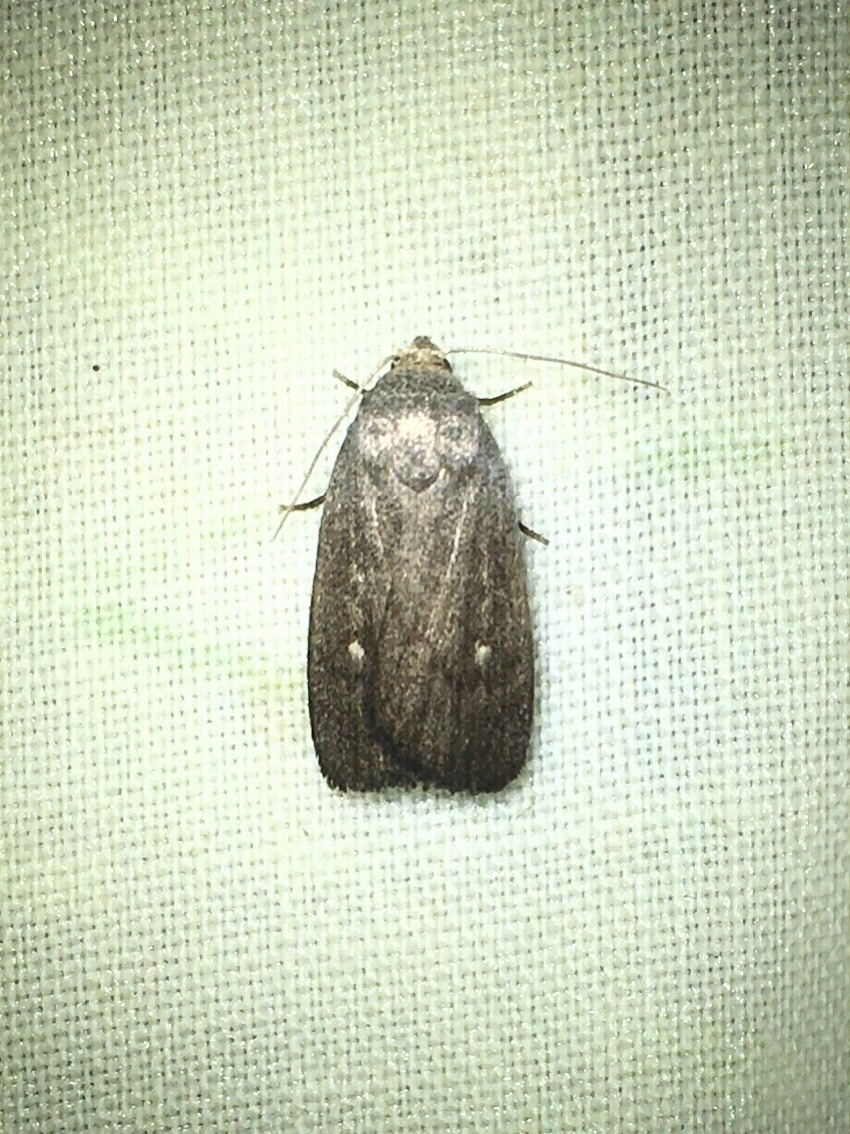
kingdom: Animalia
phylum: Arthropoda
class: Insecta
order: Lepidoptera
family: Noctuidae
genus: Proxenus
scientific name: Proxenus miranda
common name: Miranda moth
